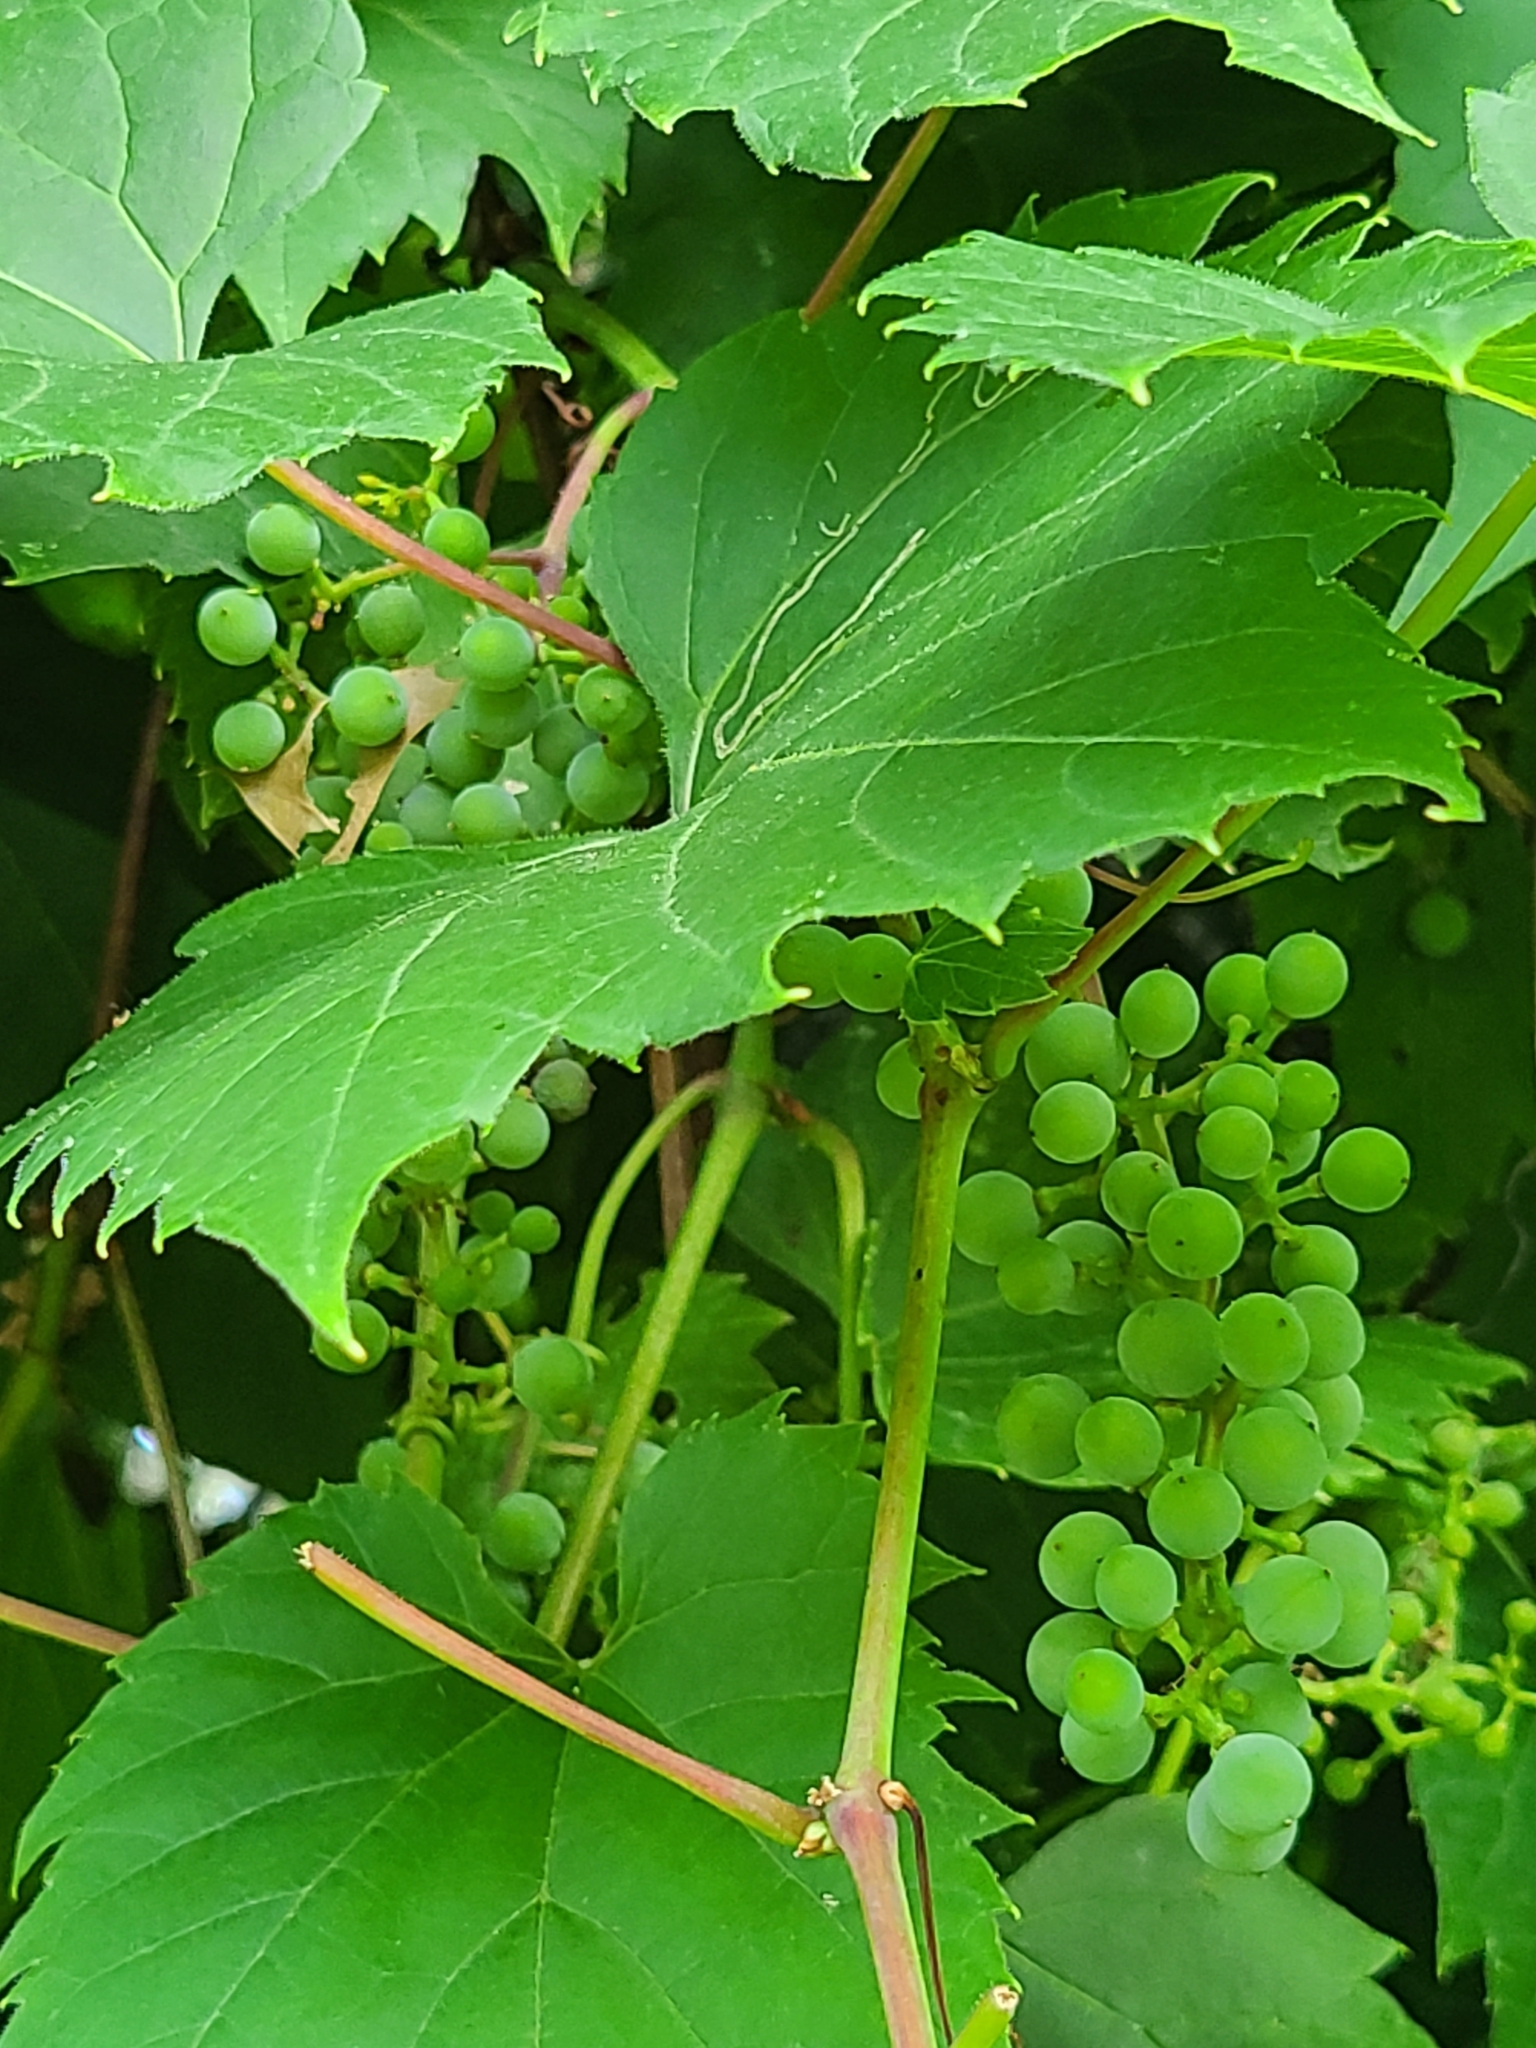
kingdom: Plantae
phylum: Tracheophyta
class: Magnoliopsida
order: Vitales
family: Vitaceae
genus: Vitis
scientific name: Vitis riparia
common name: Frost grape
